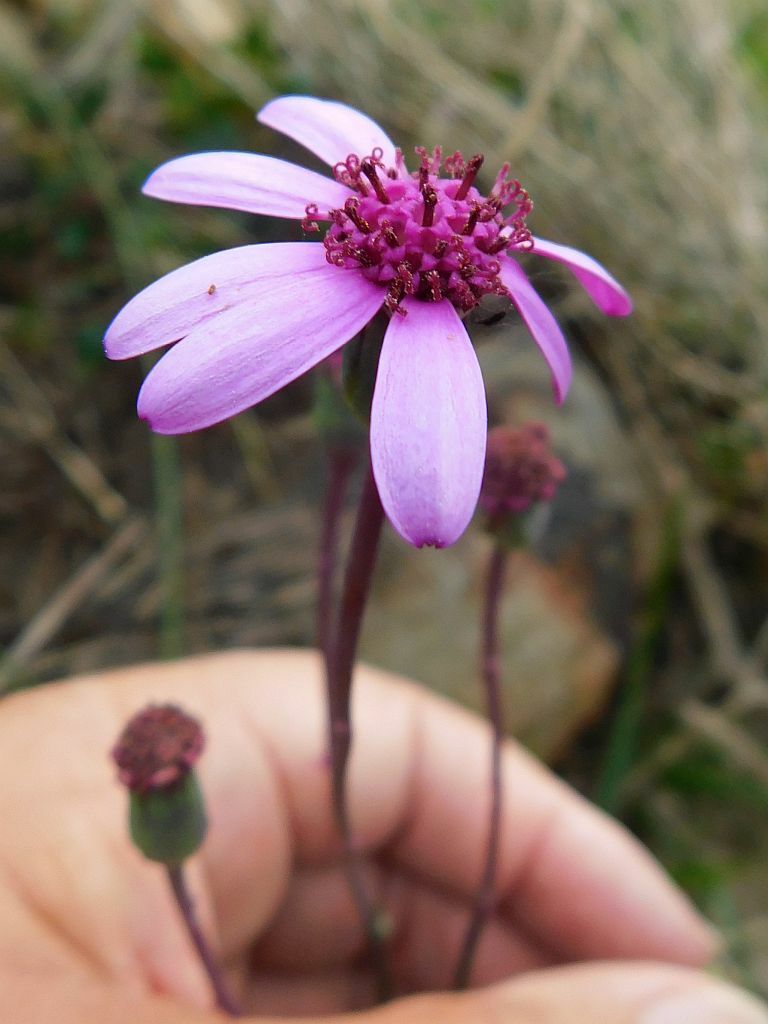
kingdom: Plantae
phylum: Tracheophyta
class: Magnoliopsida
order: Asterales
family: Asteraceae
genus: Senecio
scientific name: Senecio cymbalariifolius
